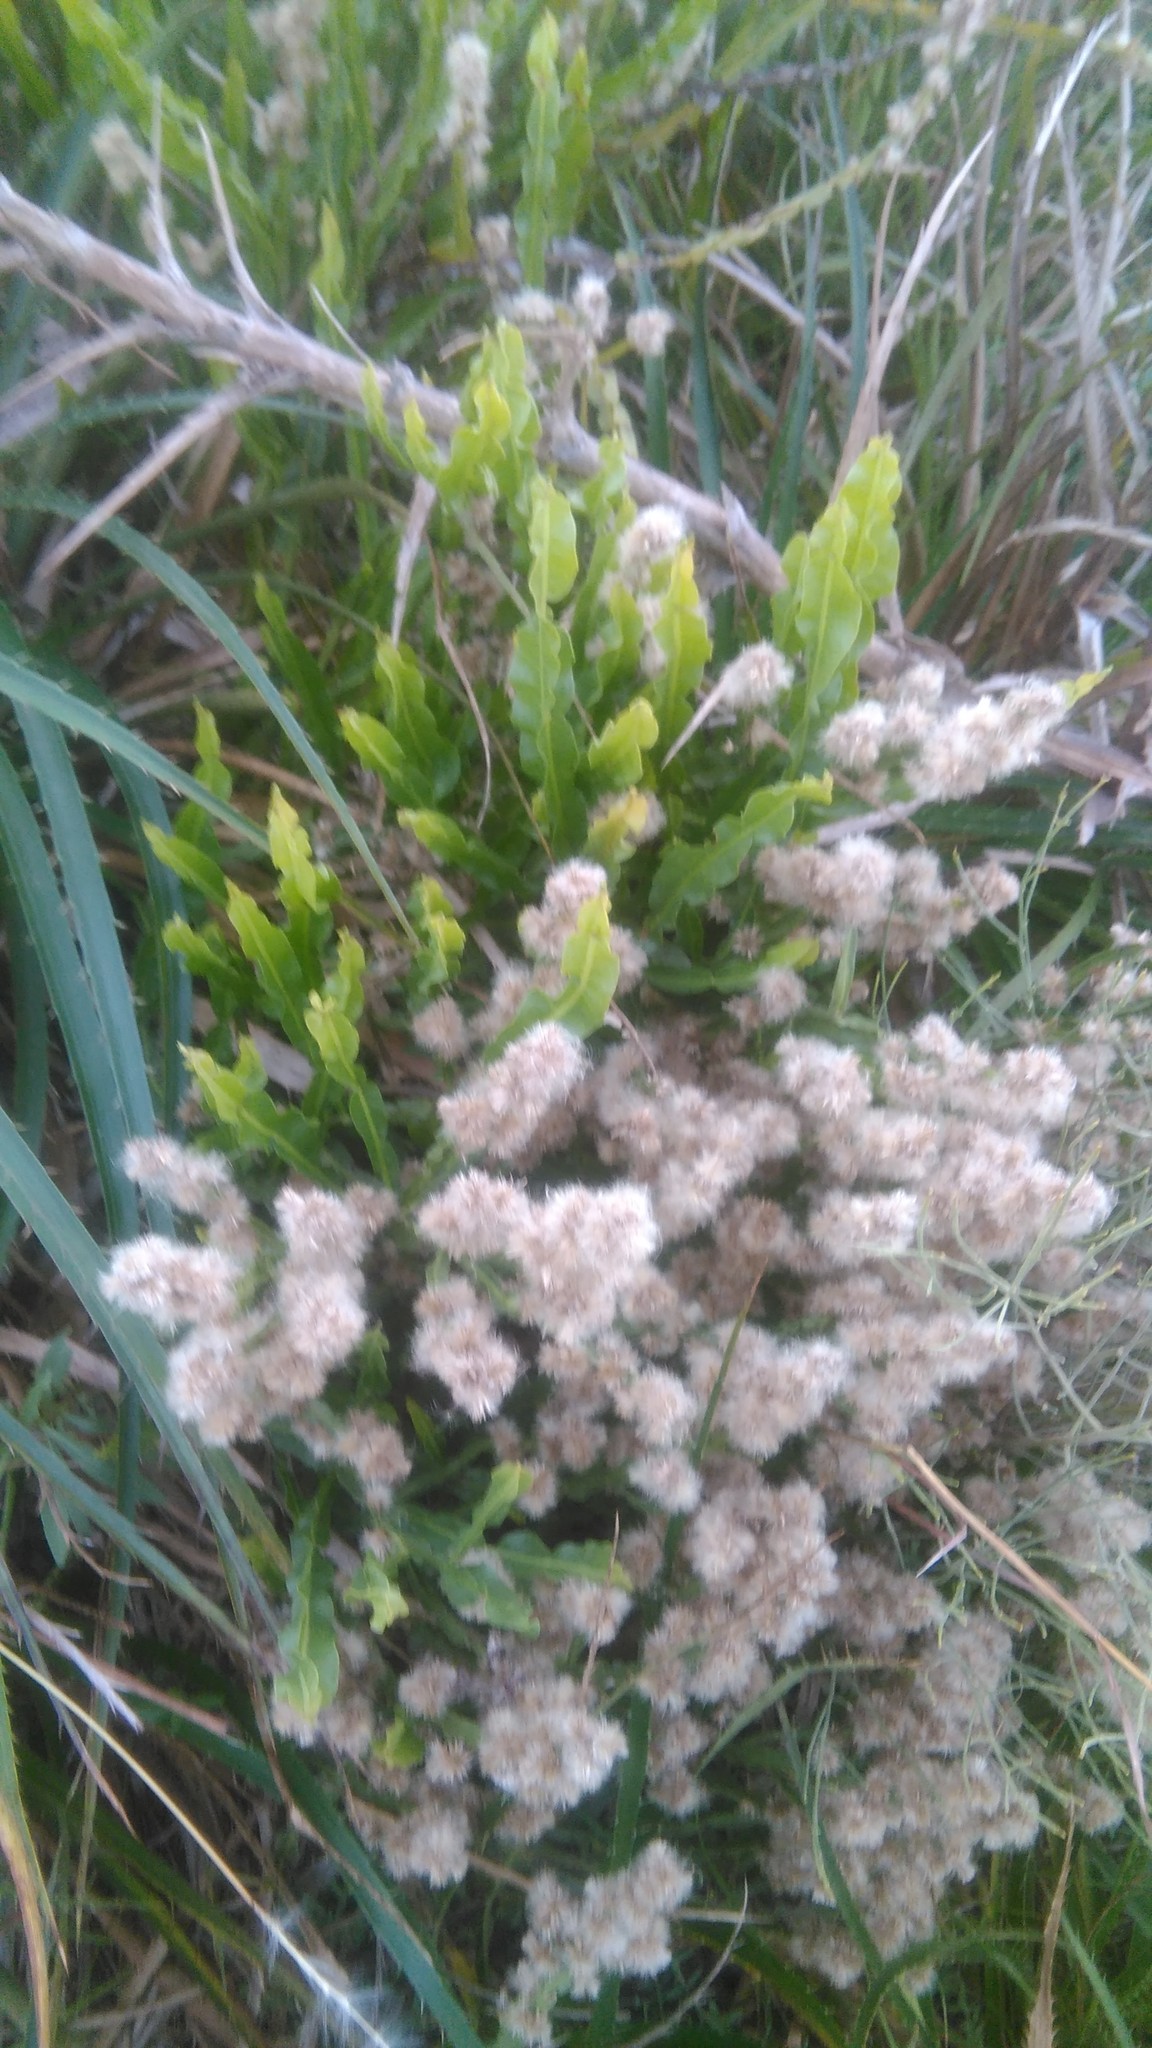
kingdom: Plantae
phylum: Tracheophyta
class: Magnoliopsida
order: Asterales
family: Asteraceae
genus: Baccharis
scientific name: Baccharis trimera
